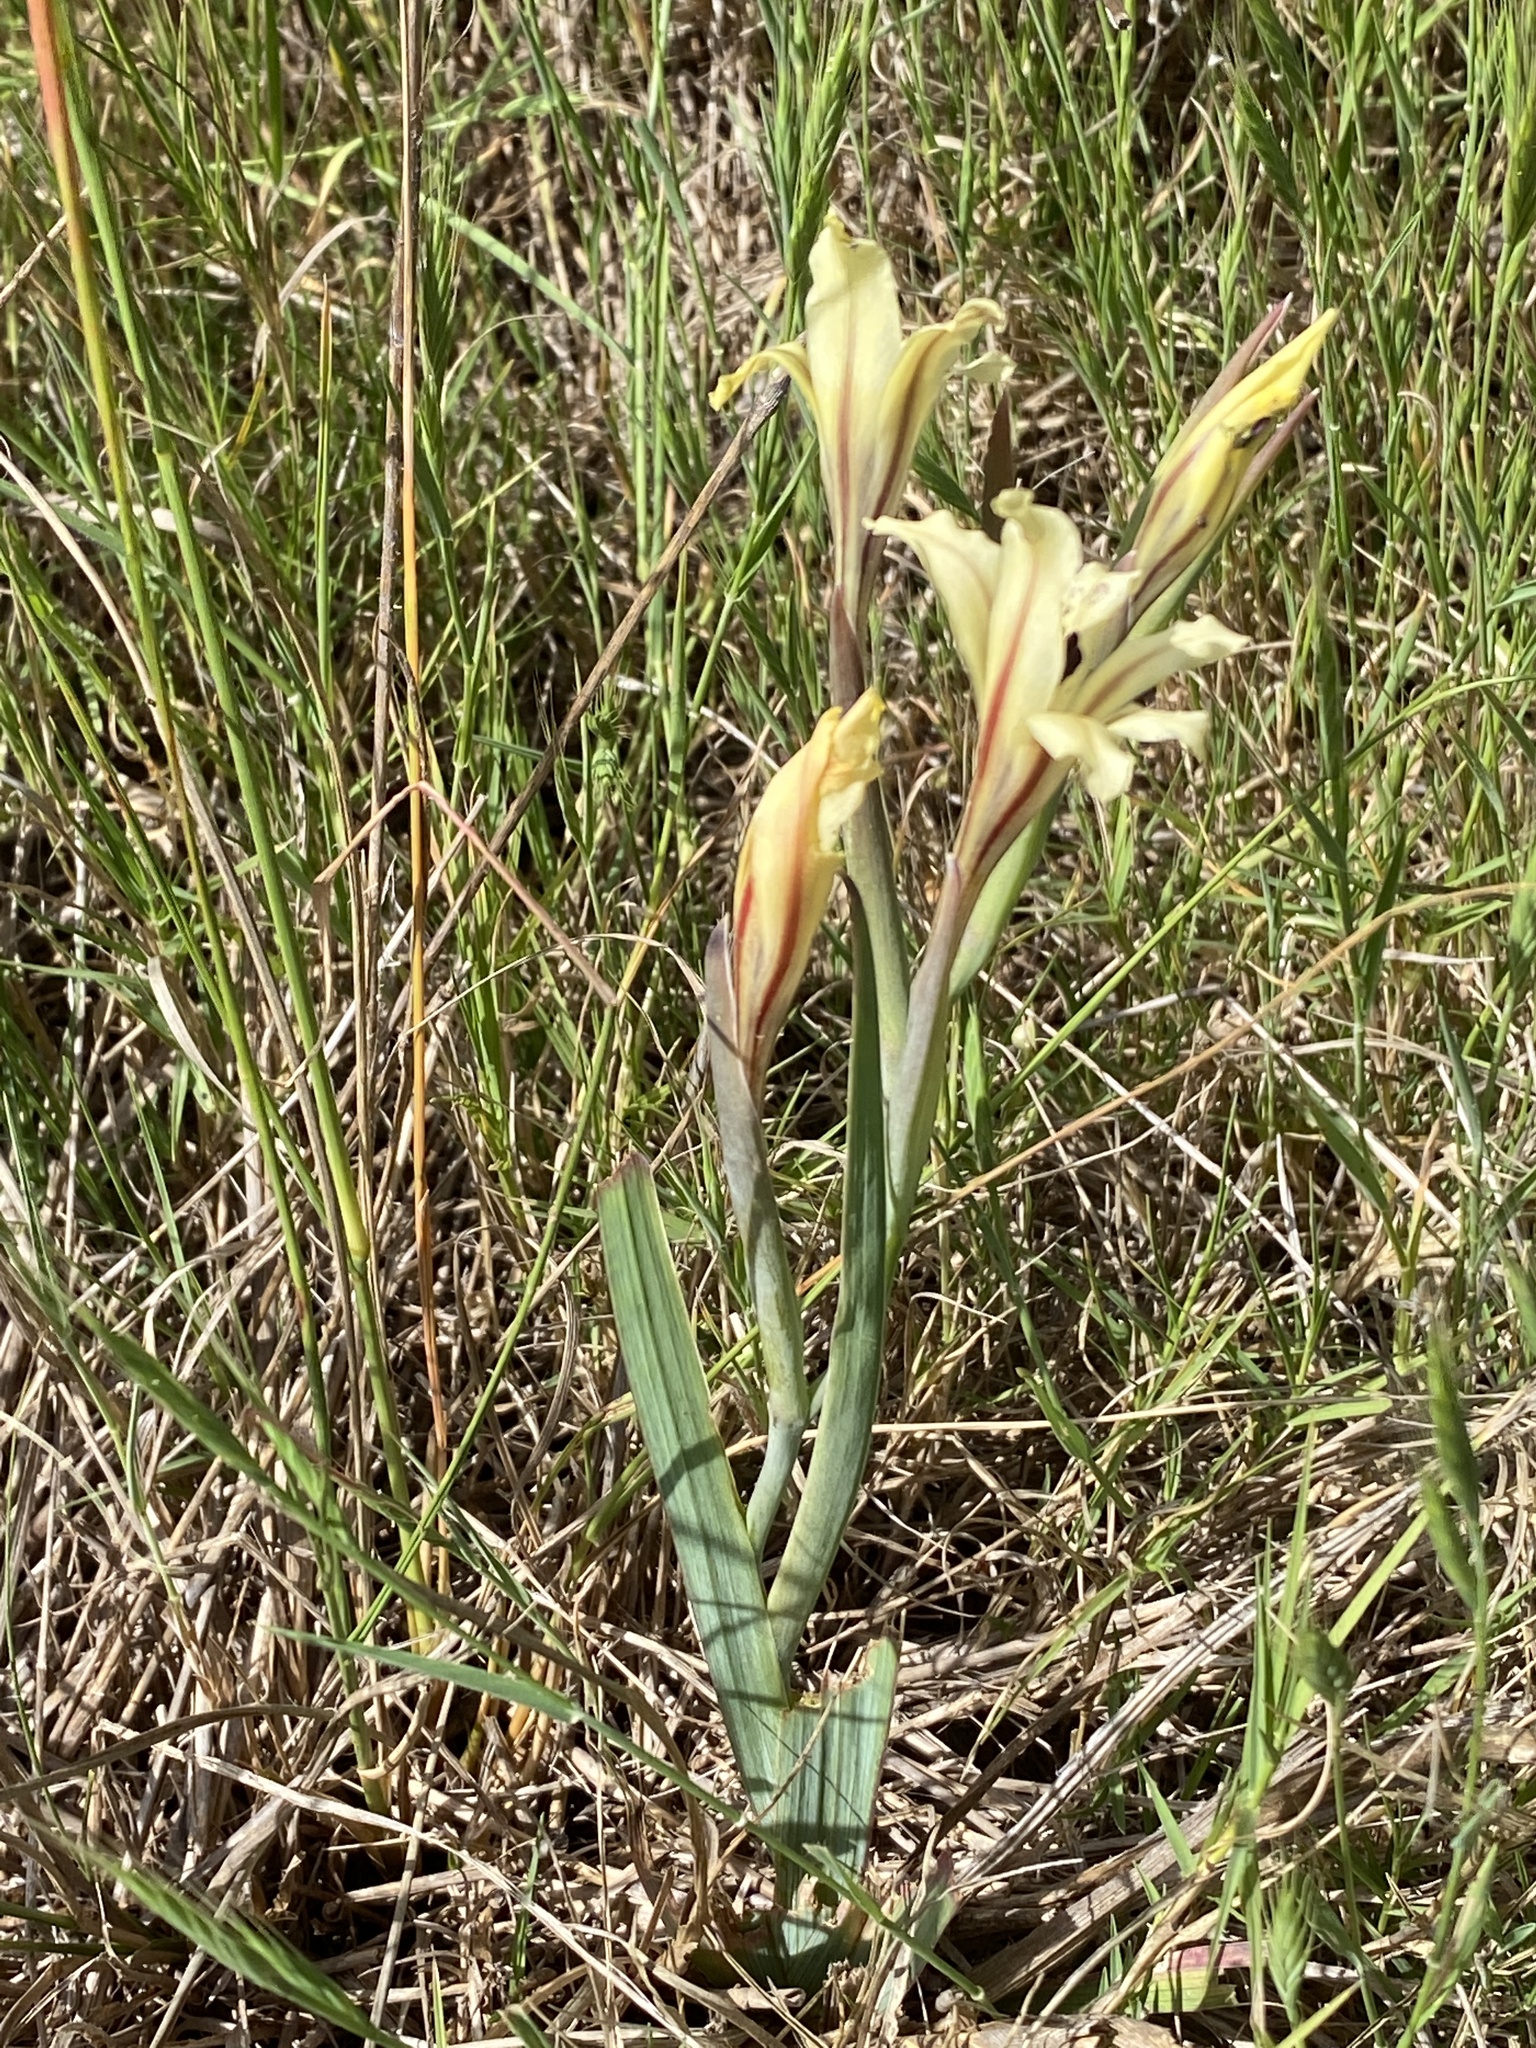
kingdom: Plantae
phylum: Tracheophyta
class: Liliopsida
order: Asparagales
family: Iridaceae
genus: Gladiolus
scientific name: Gladiolus floribundus
